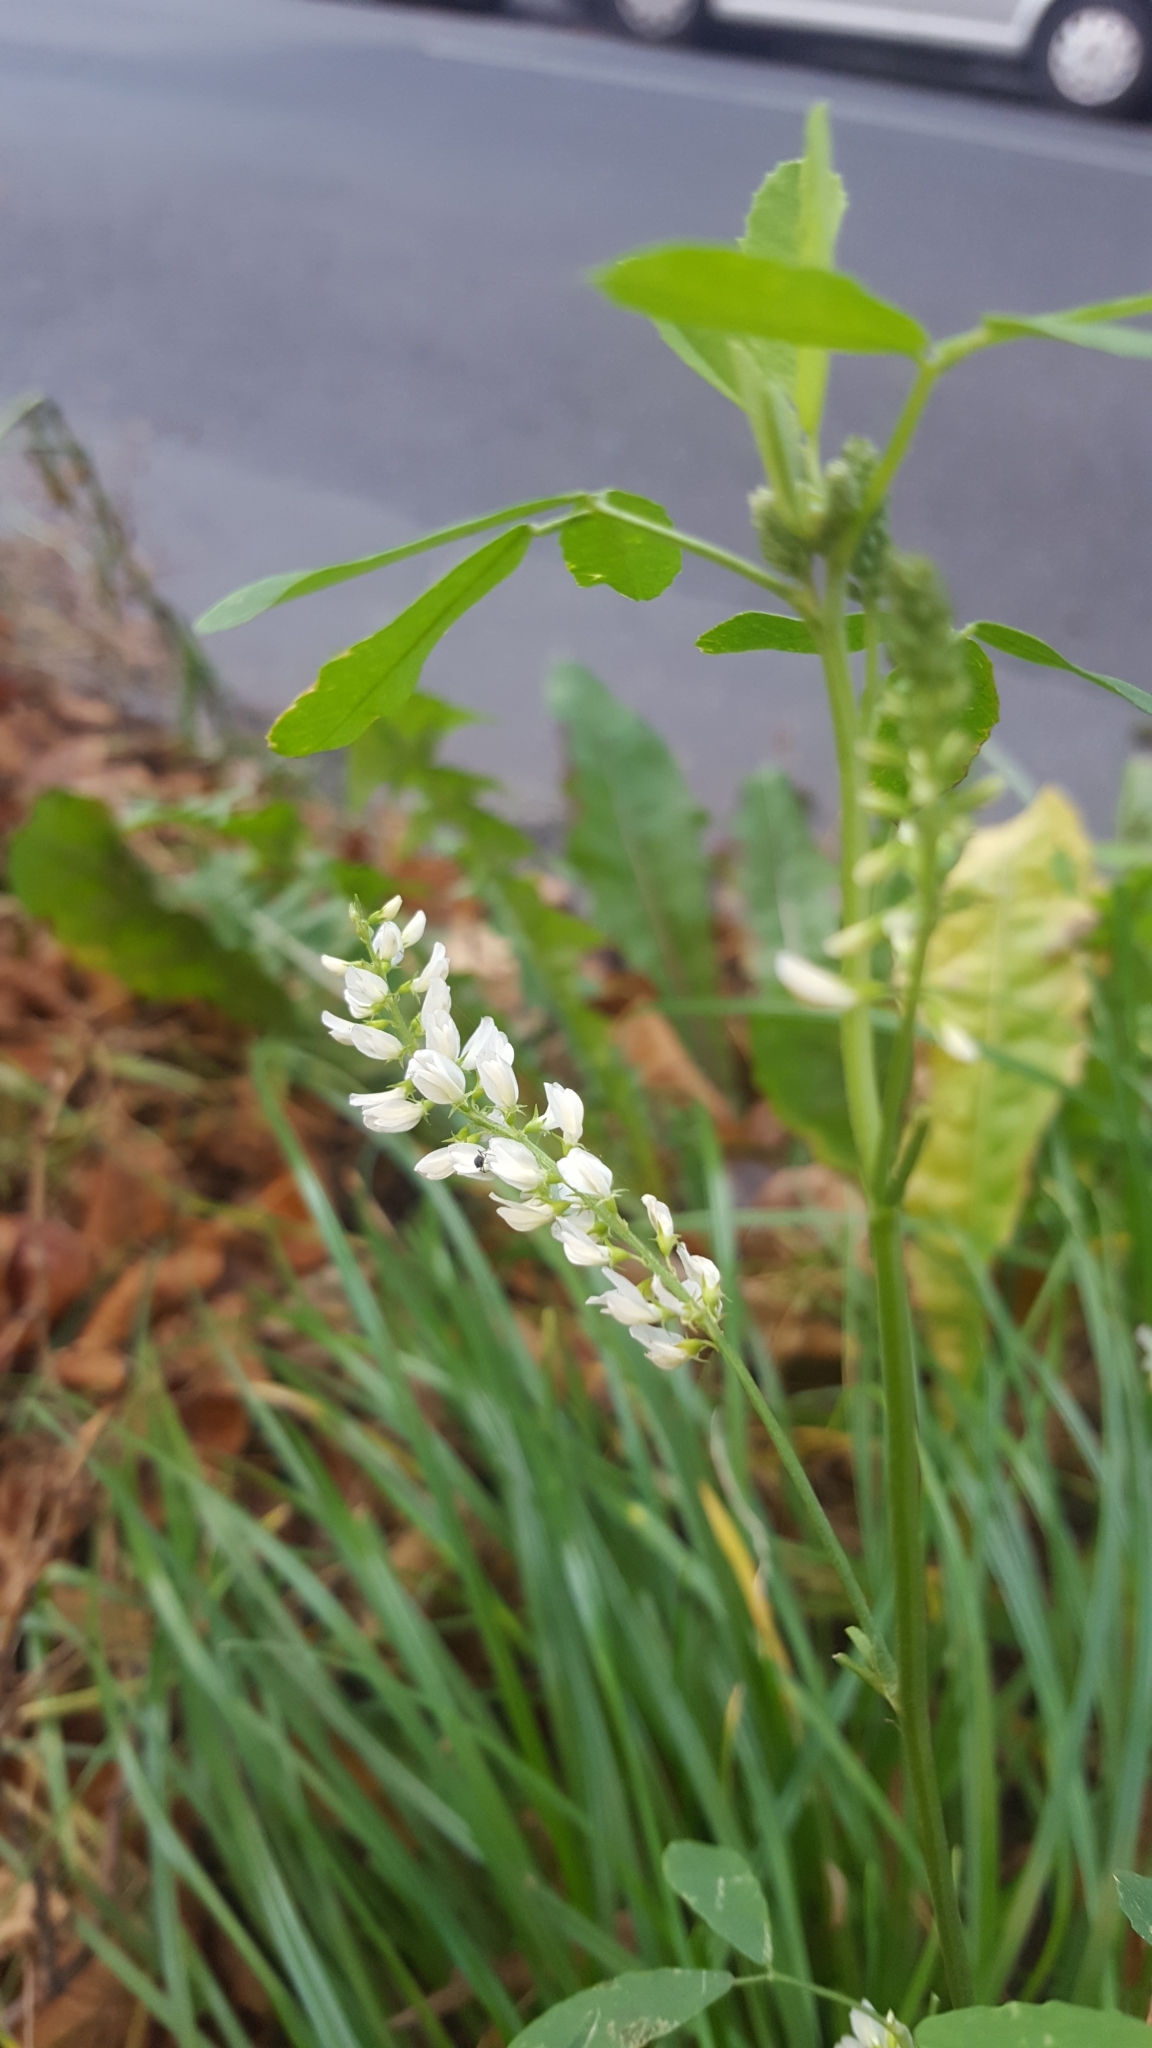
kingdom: Plantae
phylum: Tracheophyta
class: Magnoliopsida
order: Fabales
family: Fabaceae
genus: Melilotus
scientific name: Melilotus albus
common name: White melilot
